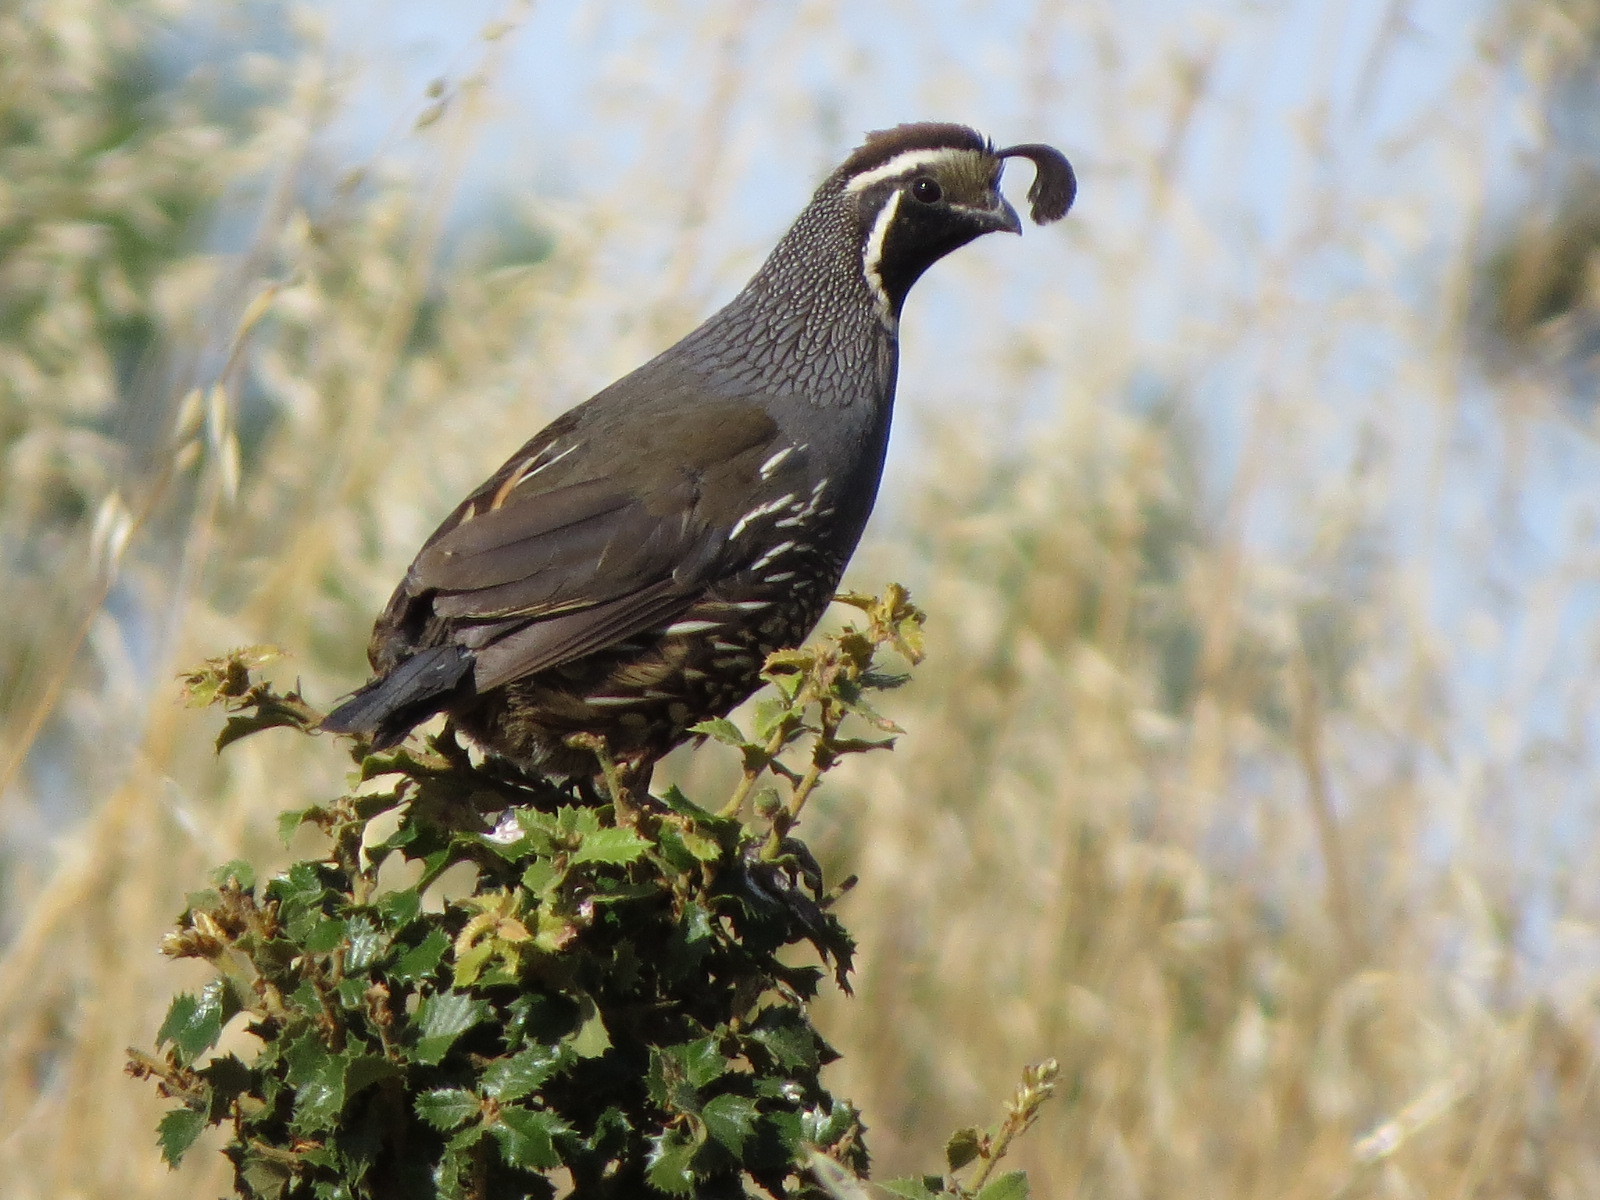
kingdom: Animalia
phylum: Chordata
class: Aves
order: Galliformes
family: Odontophoridae
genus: Callipepla
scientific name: Callipepla californica
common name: California quail
